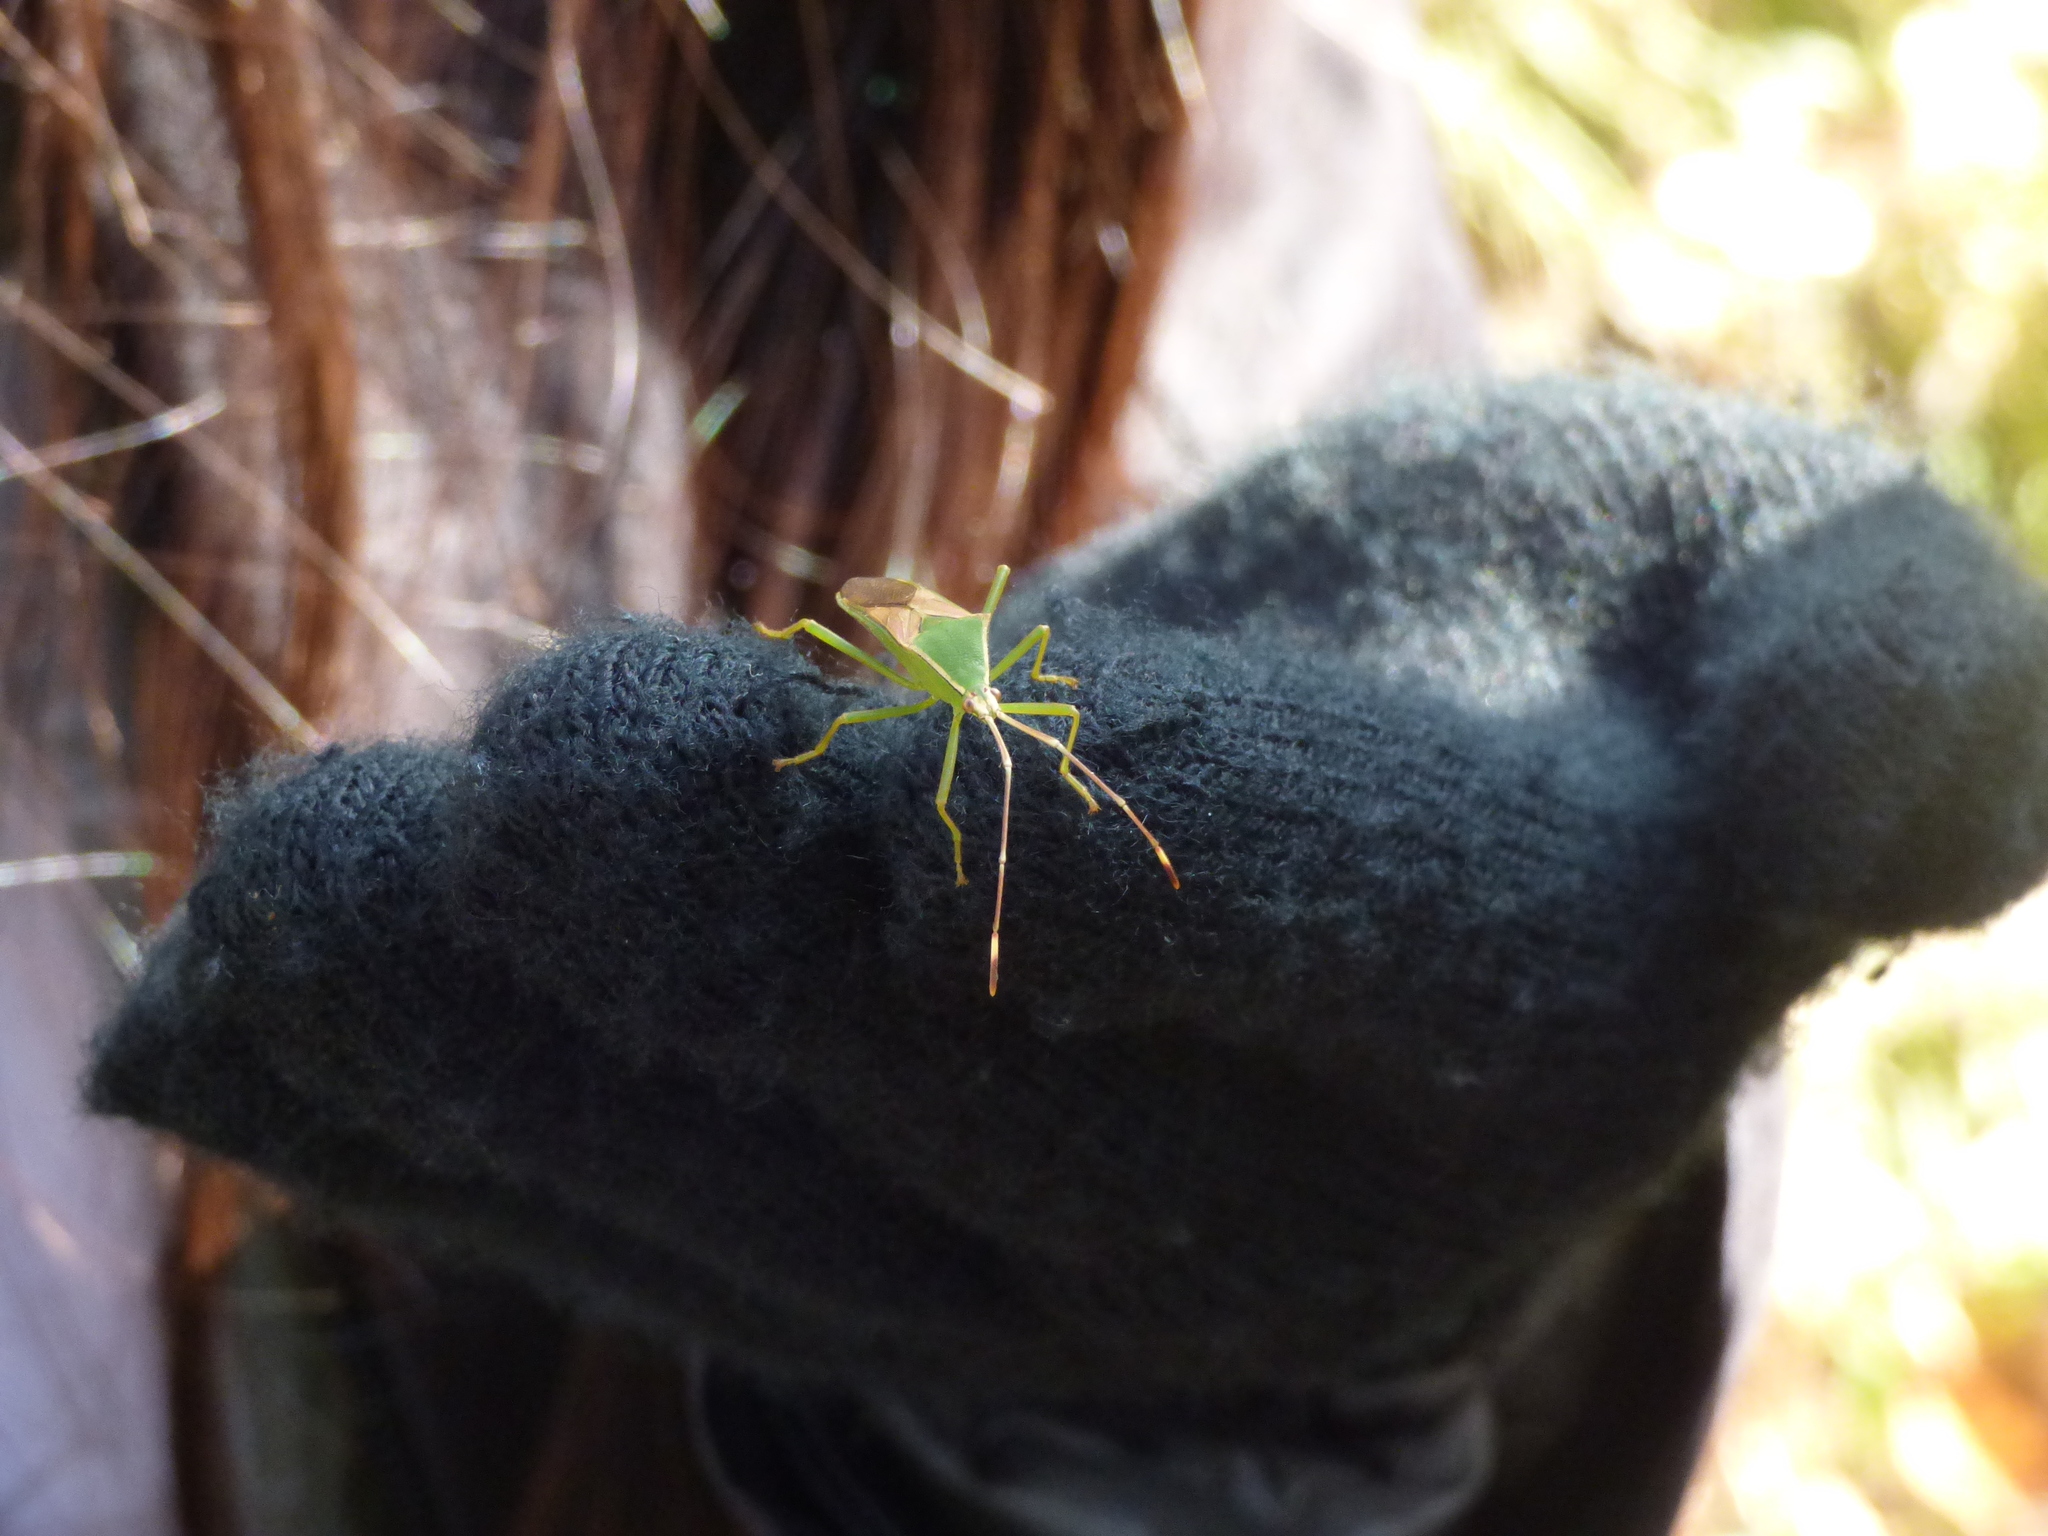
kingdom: Animalia
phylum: Arthropoda
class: Insecta
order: Hemiptera
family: Coreidae
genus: Homoeocerus
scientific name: Homoeocerus striicornis
